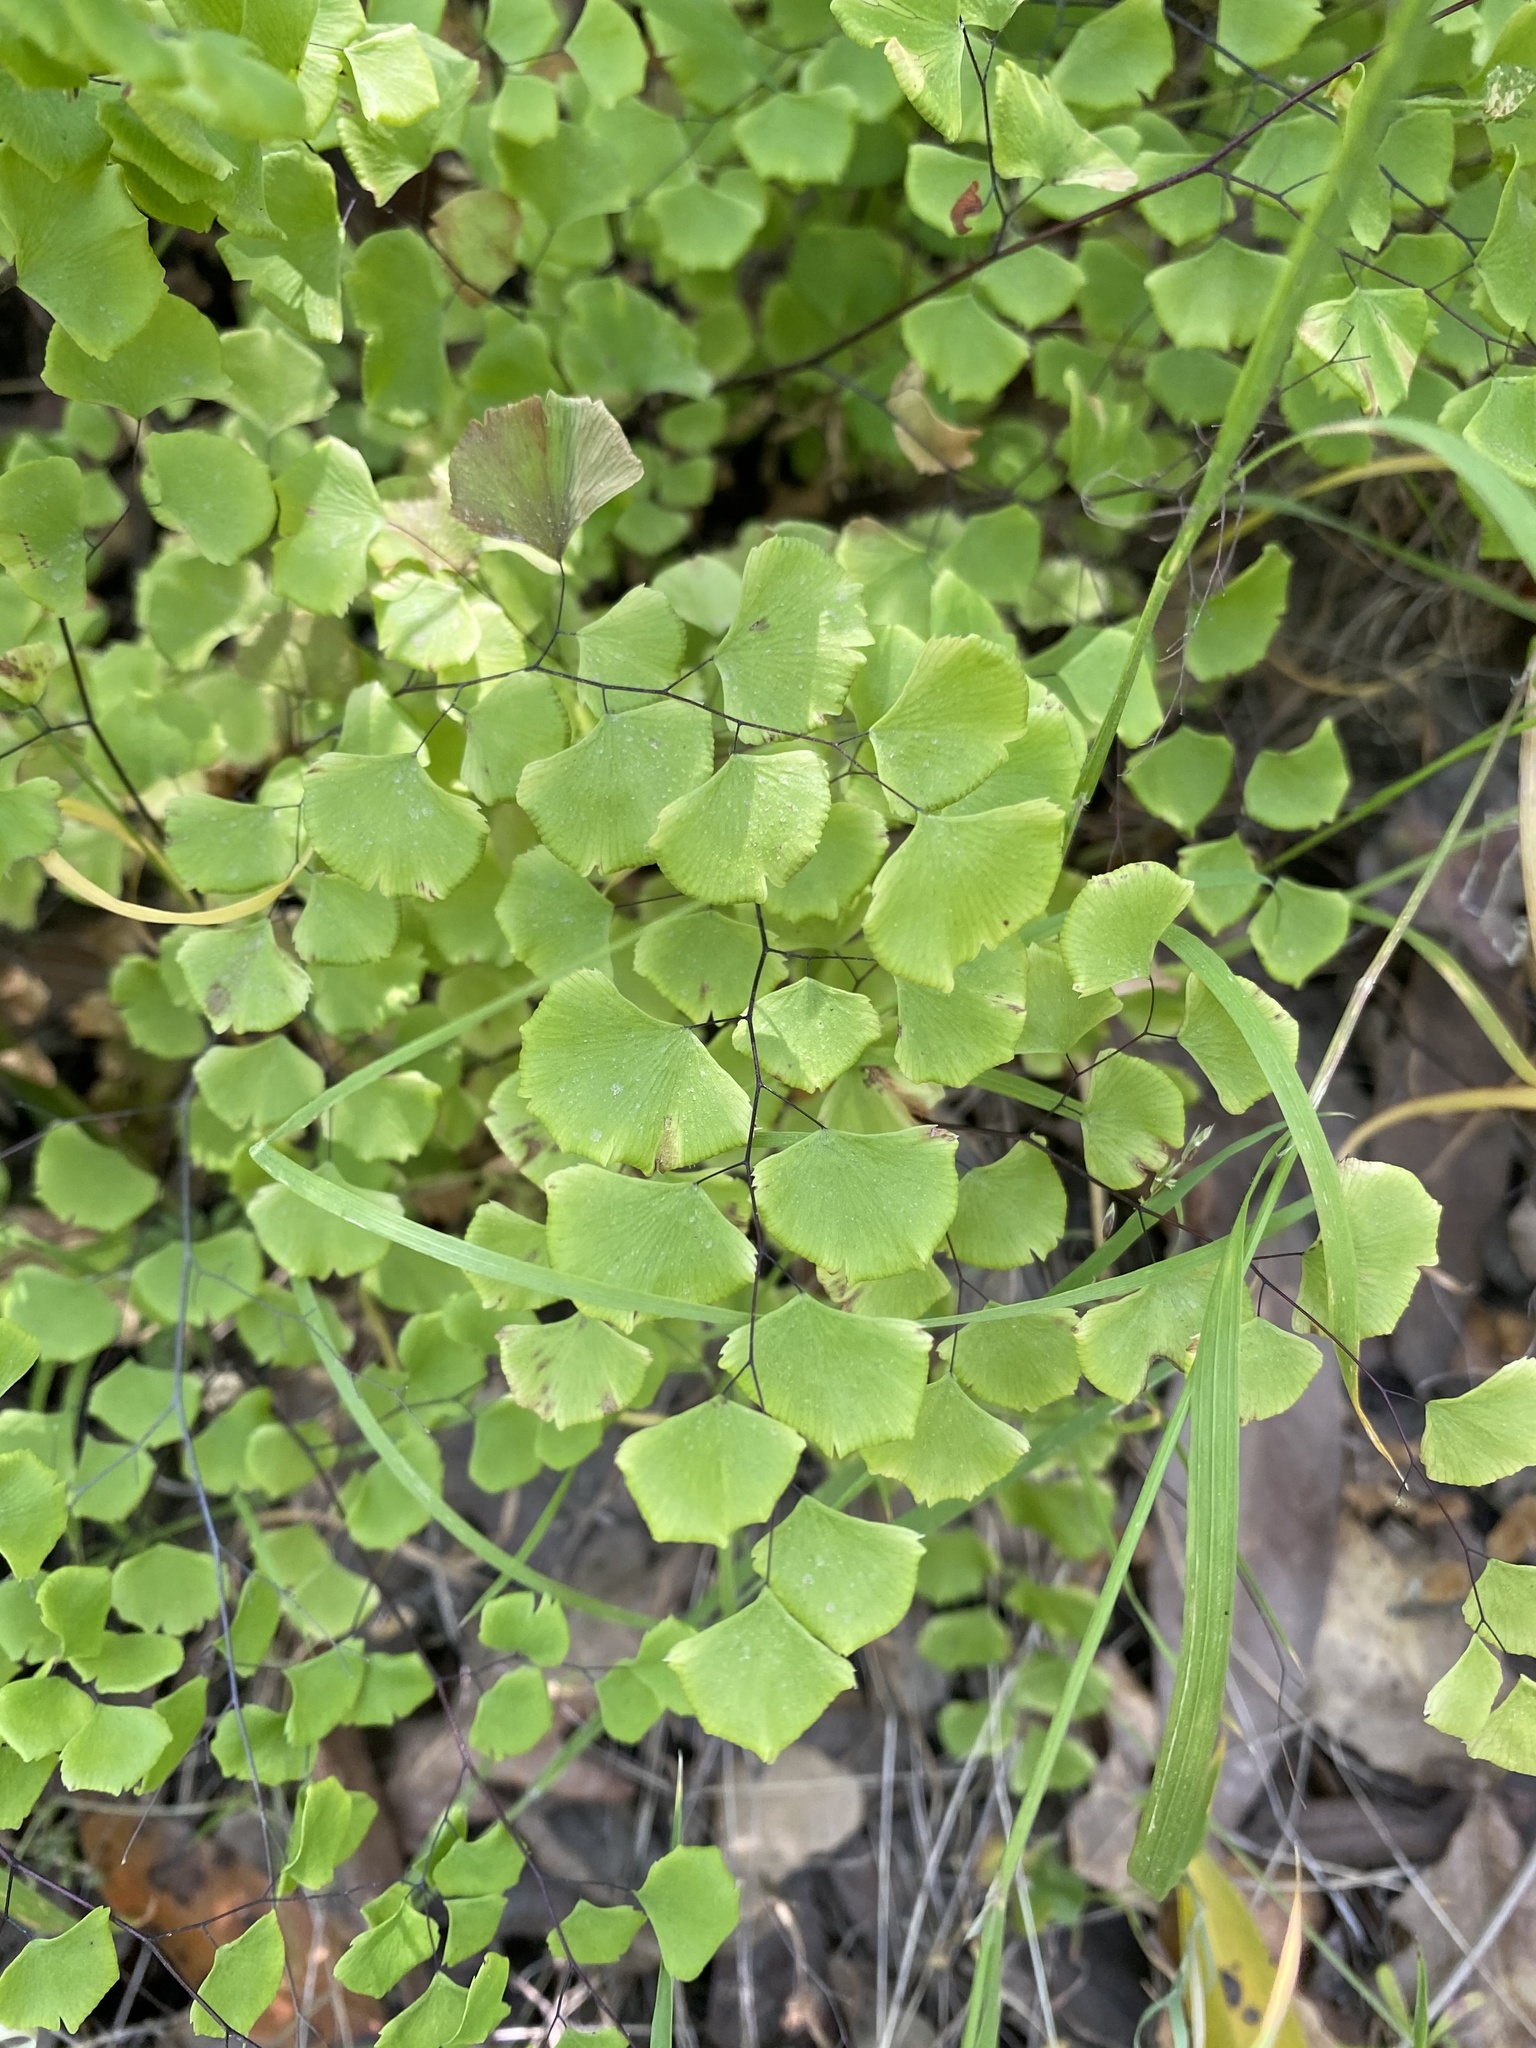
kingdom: Plantae
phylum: Tracheophyta
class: Polypodiopsida
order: Polypodiales
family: Pteridaceae
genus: Adiantum
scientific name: Adiantum jordanii
